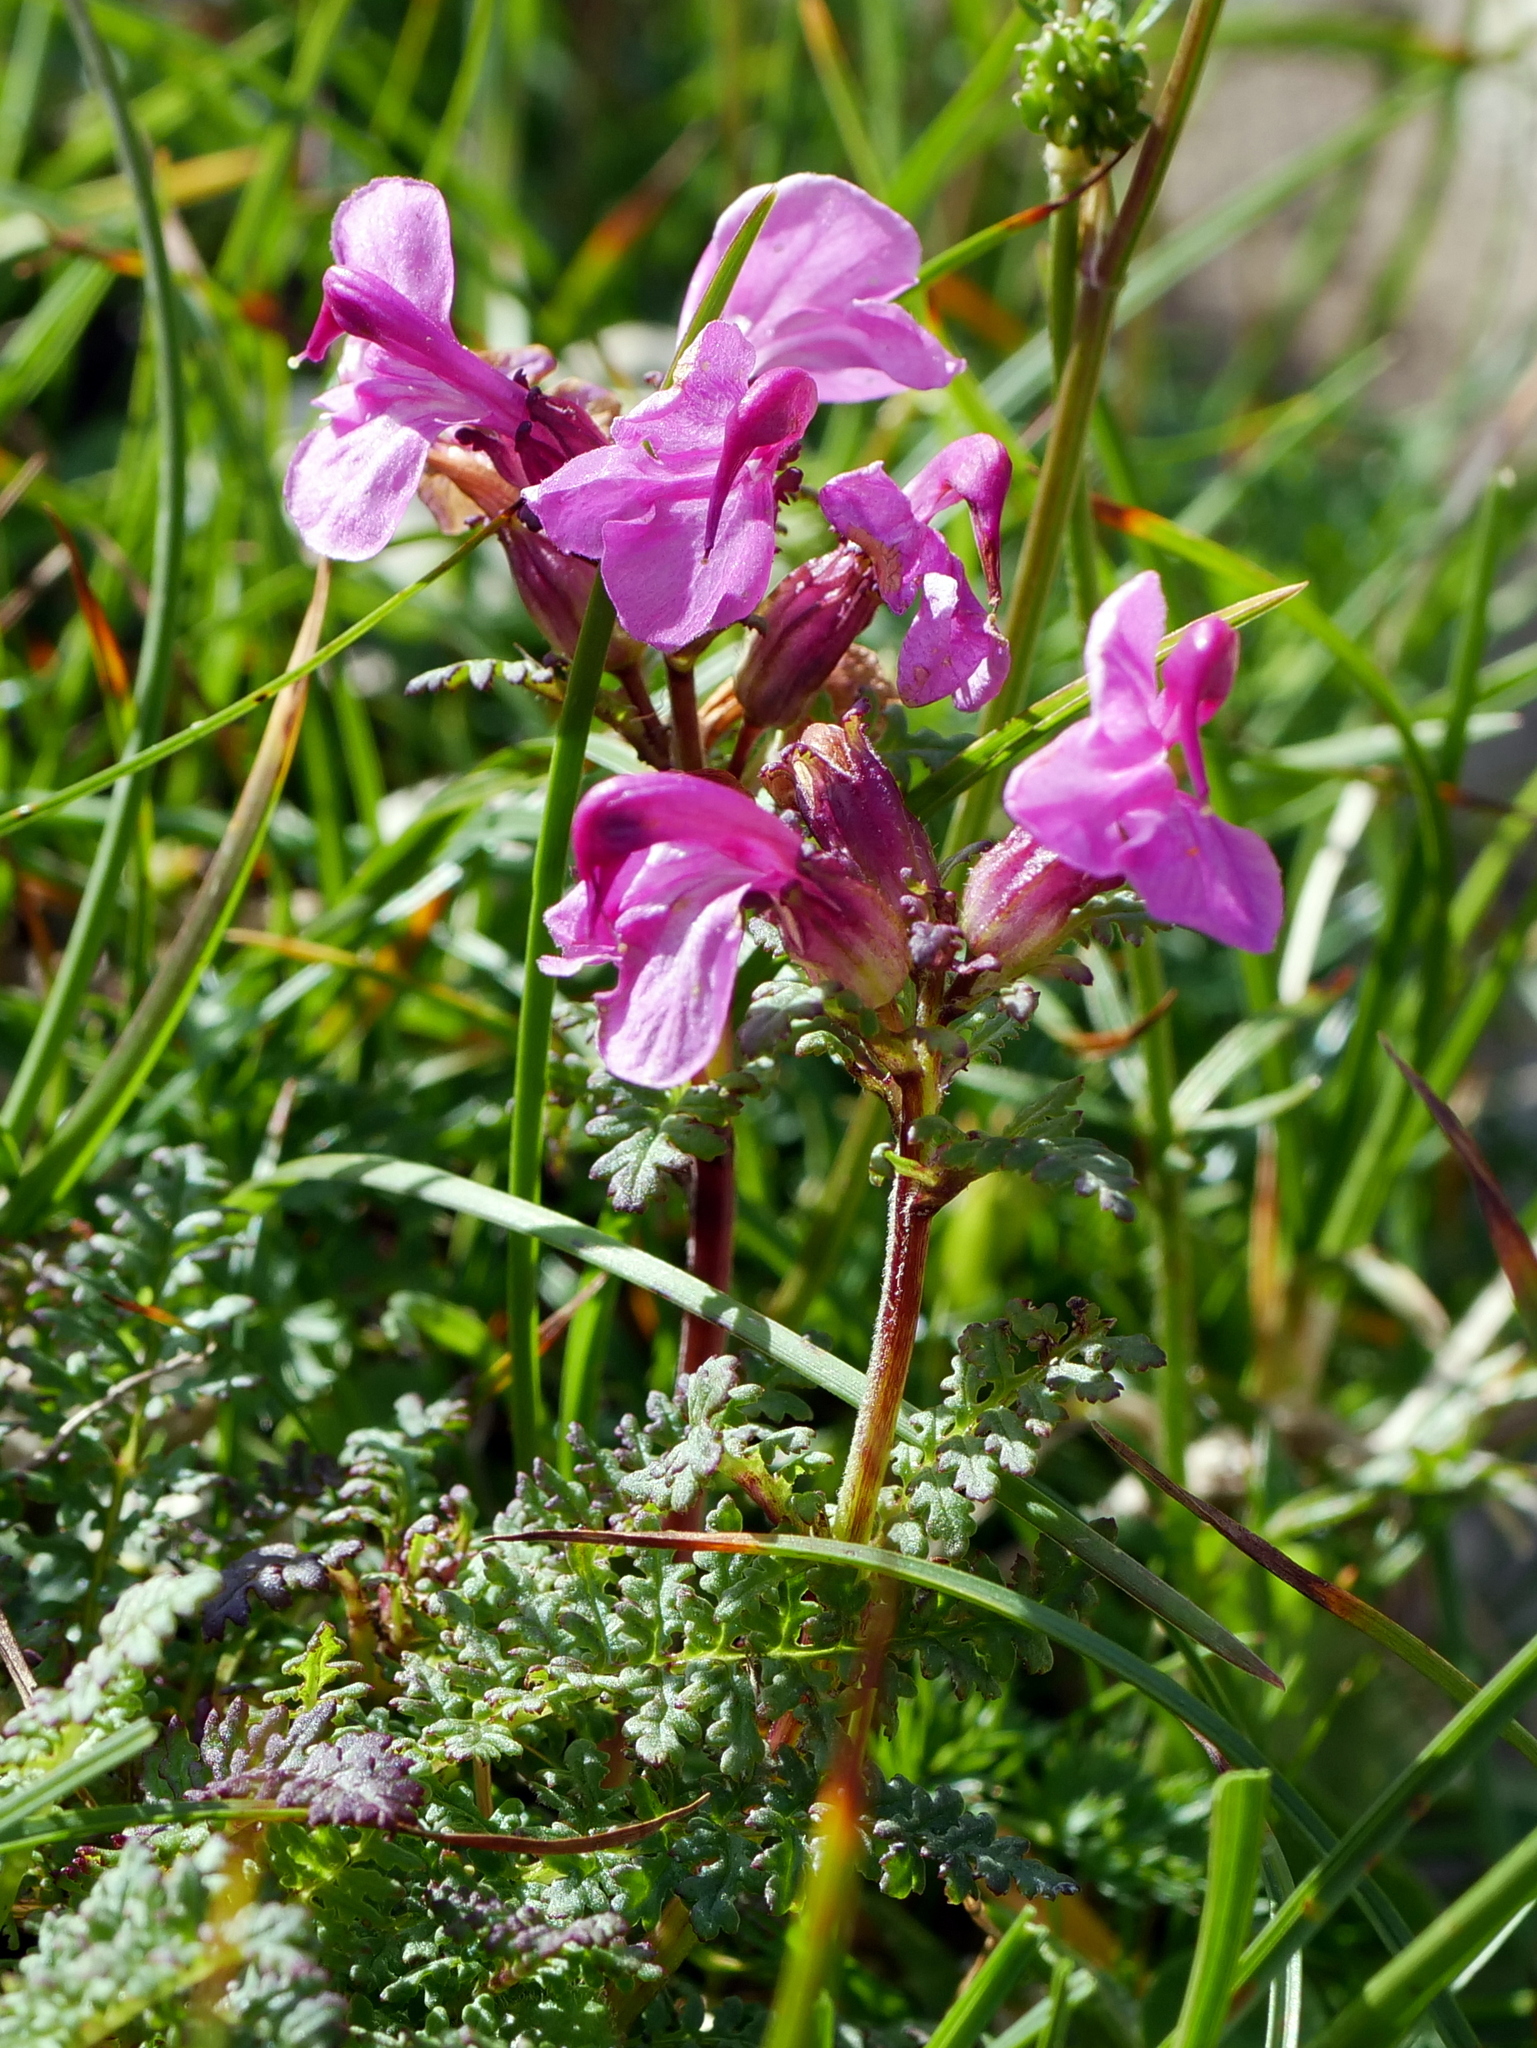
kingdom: Plantae
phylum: Tracheophyta
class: Magnoliopsida
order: Lamiales
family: Orobanchaceae
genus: Pedicularis
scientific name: Pedicularis rostratocapitata
